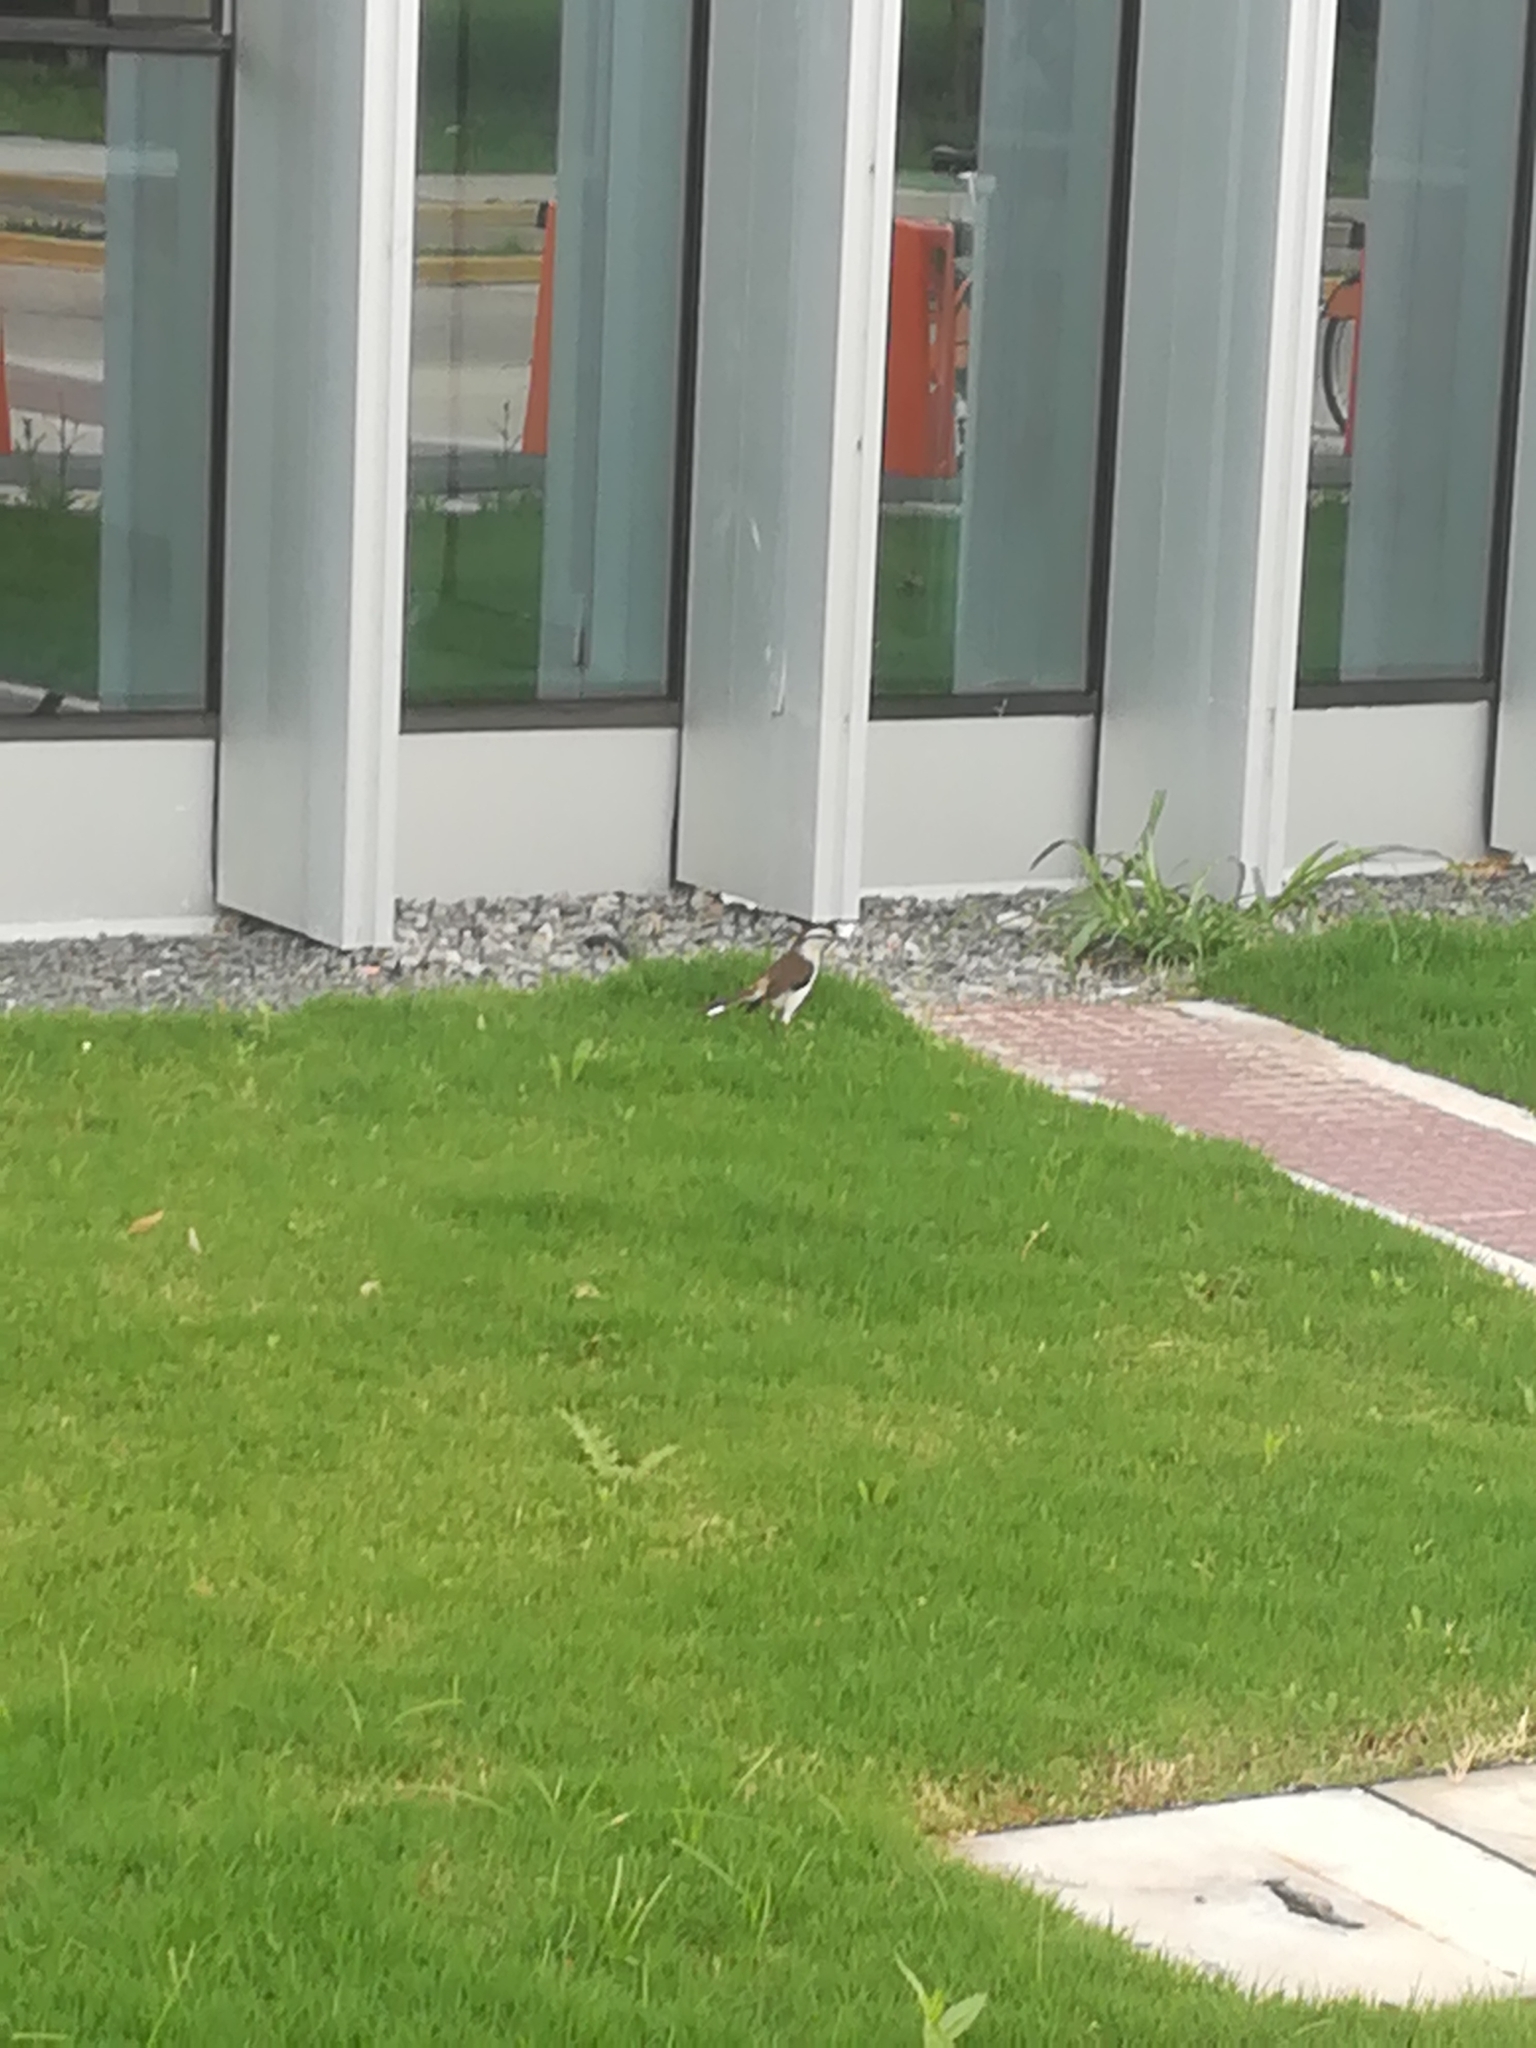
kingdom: Animalia
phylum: Chordata
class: Aves
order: Passeriformes
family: Mimidae
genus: Mimus
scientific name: Mimus saturninus
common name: Chalk-browed mockingbird
